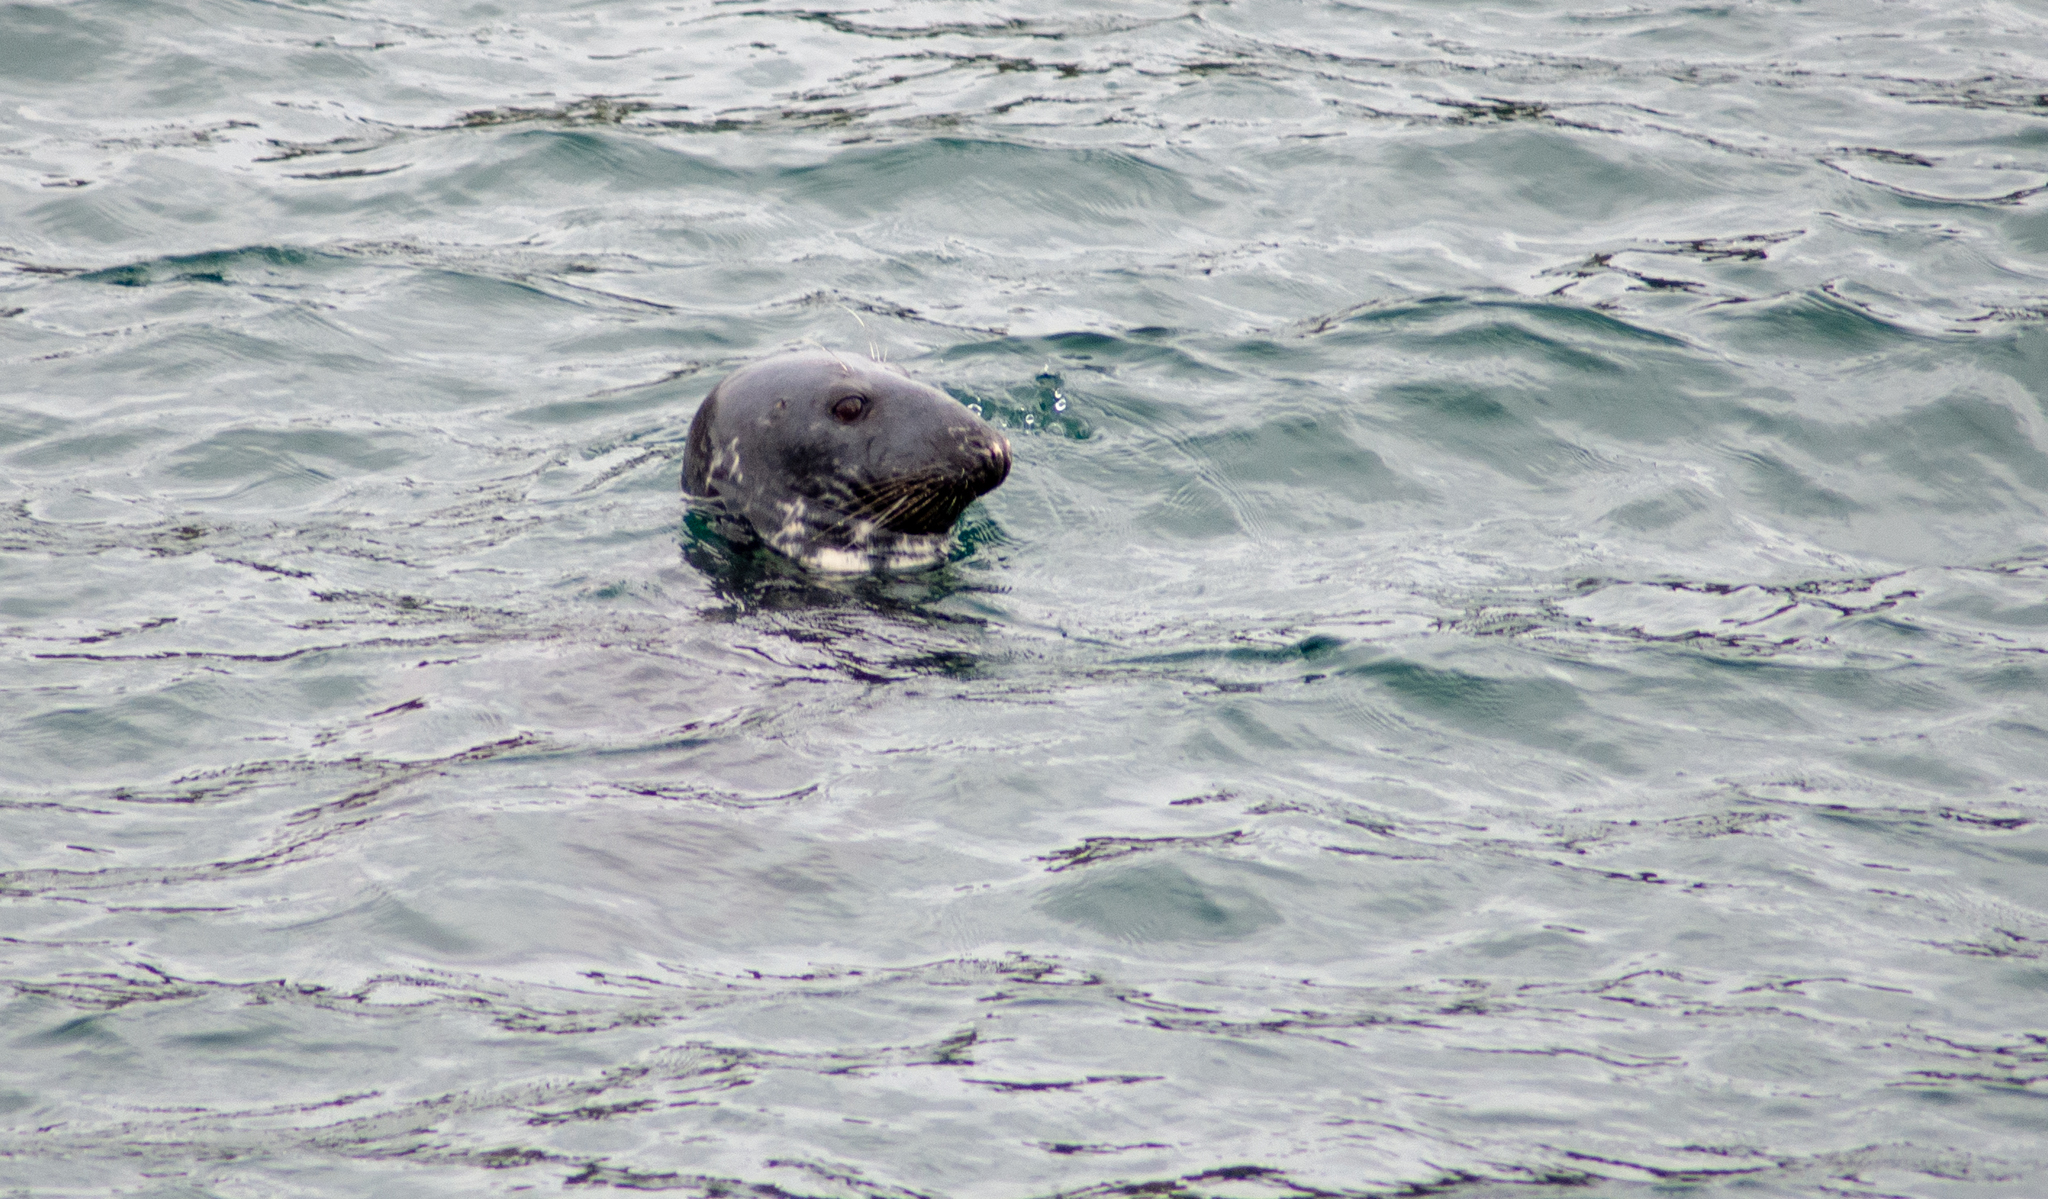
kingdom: Animalia
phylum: Chordata
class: Mammalia
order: Carnivora
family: Phocidae
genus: Halichoerus
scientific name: Halichoerus grypus
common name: Grey seal
